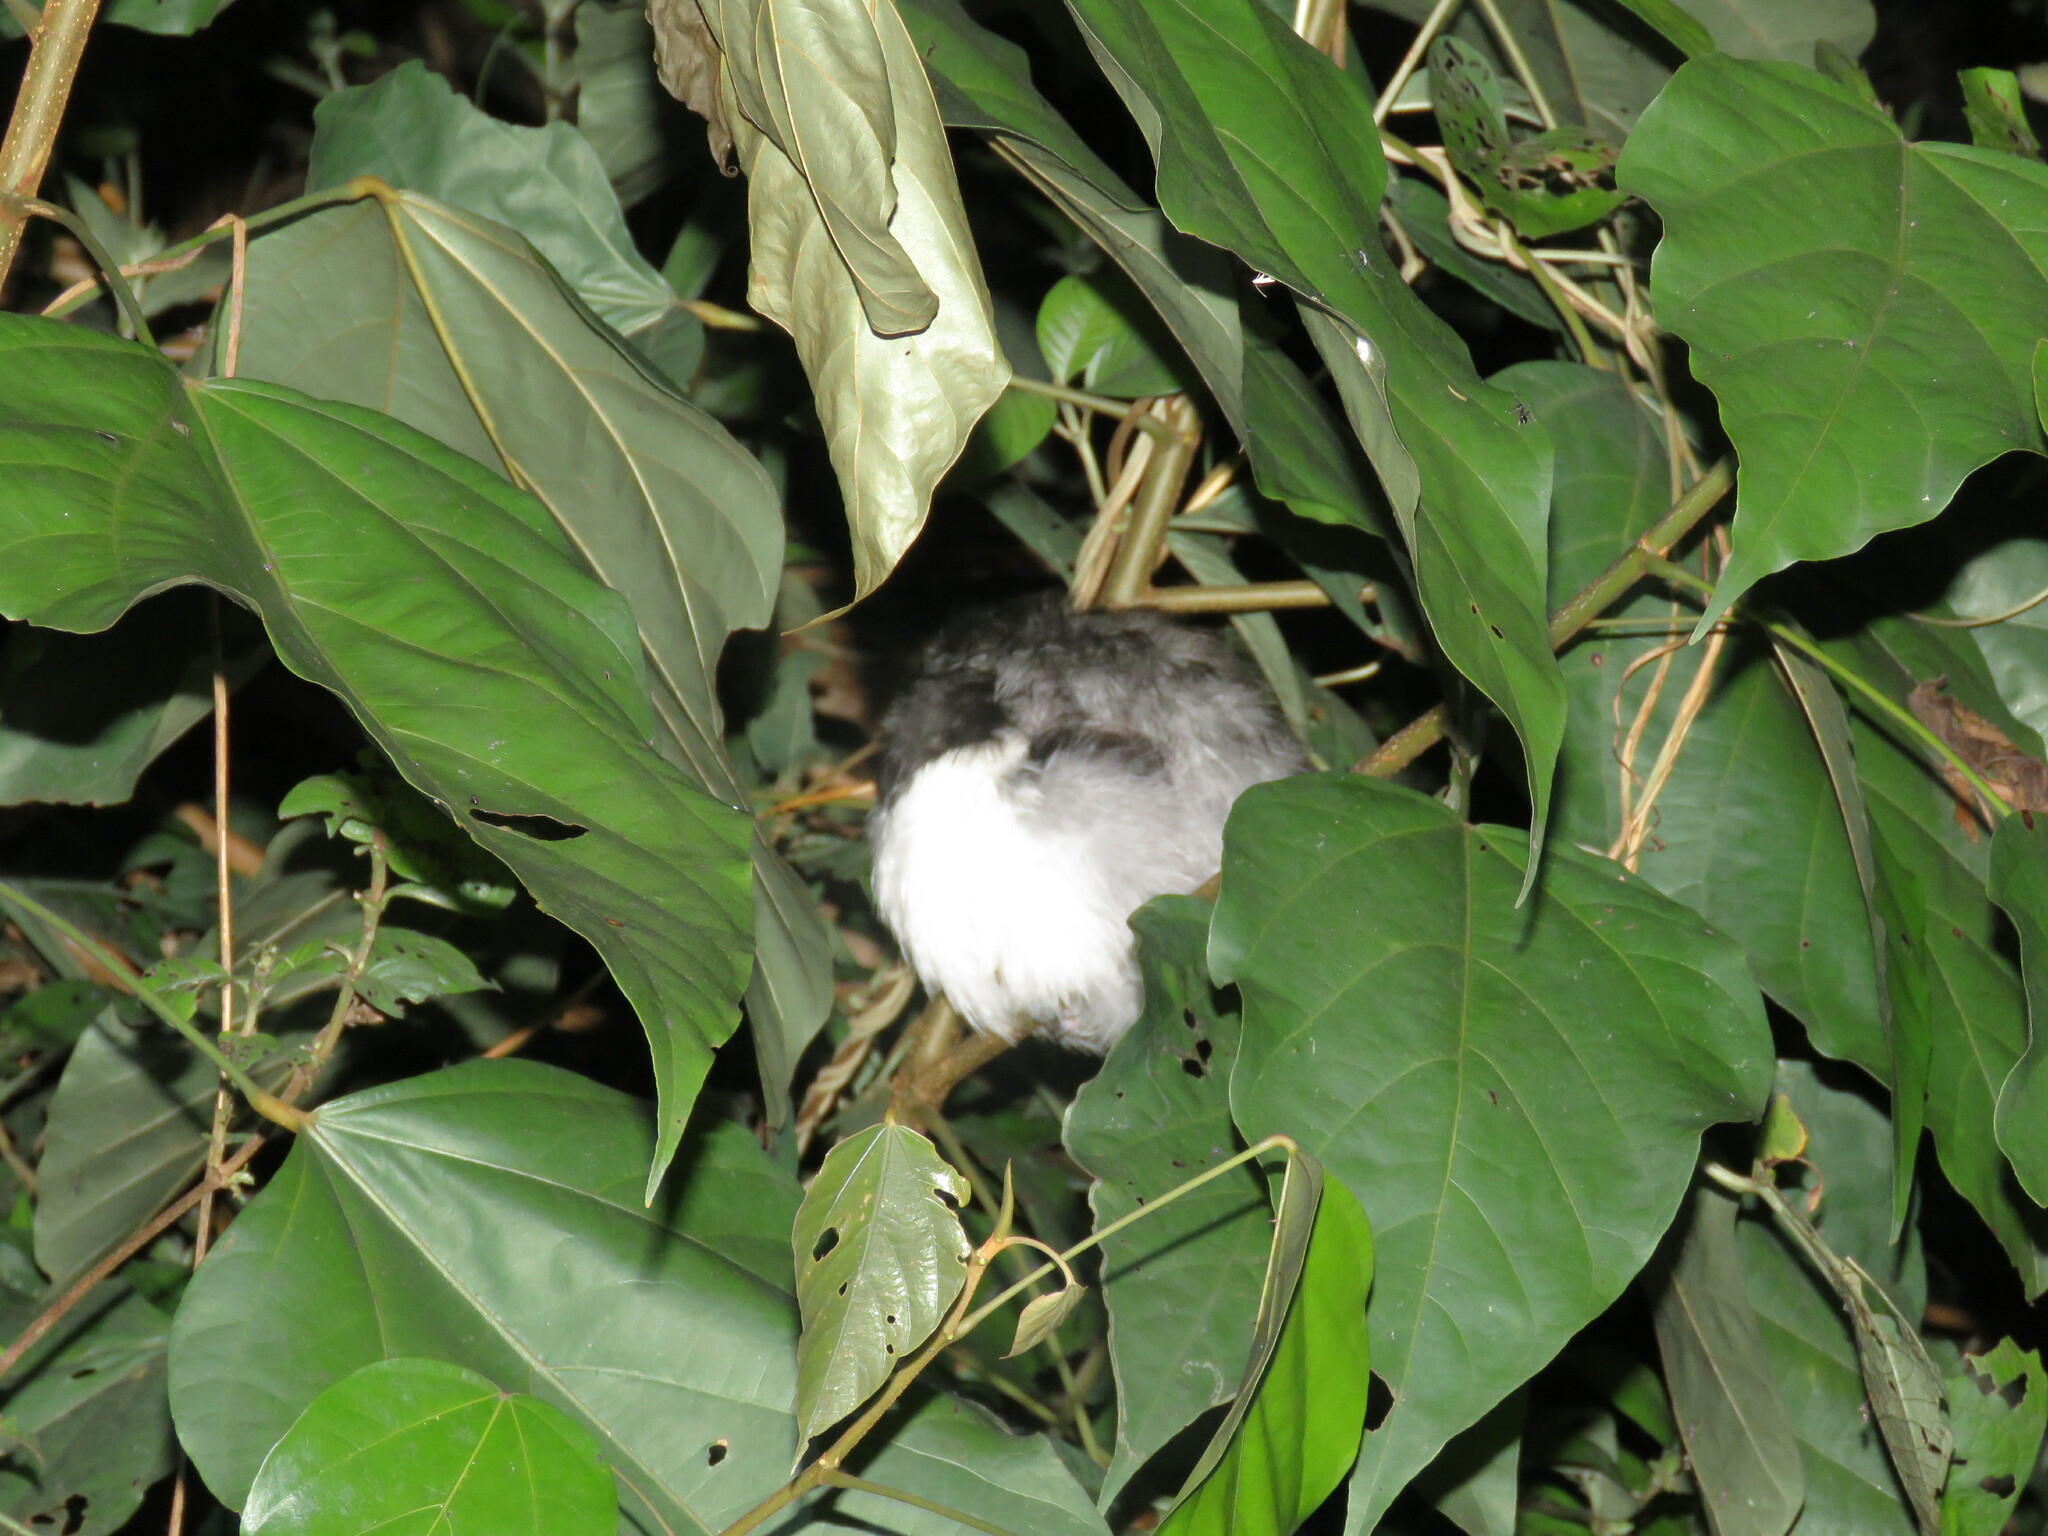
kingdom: Animalia
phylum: Chordata
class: Aves
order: Passeriformes
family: Thamnophilidae
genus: Taraba
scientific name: Taraba major
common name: Great antshrike
